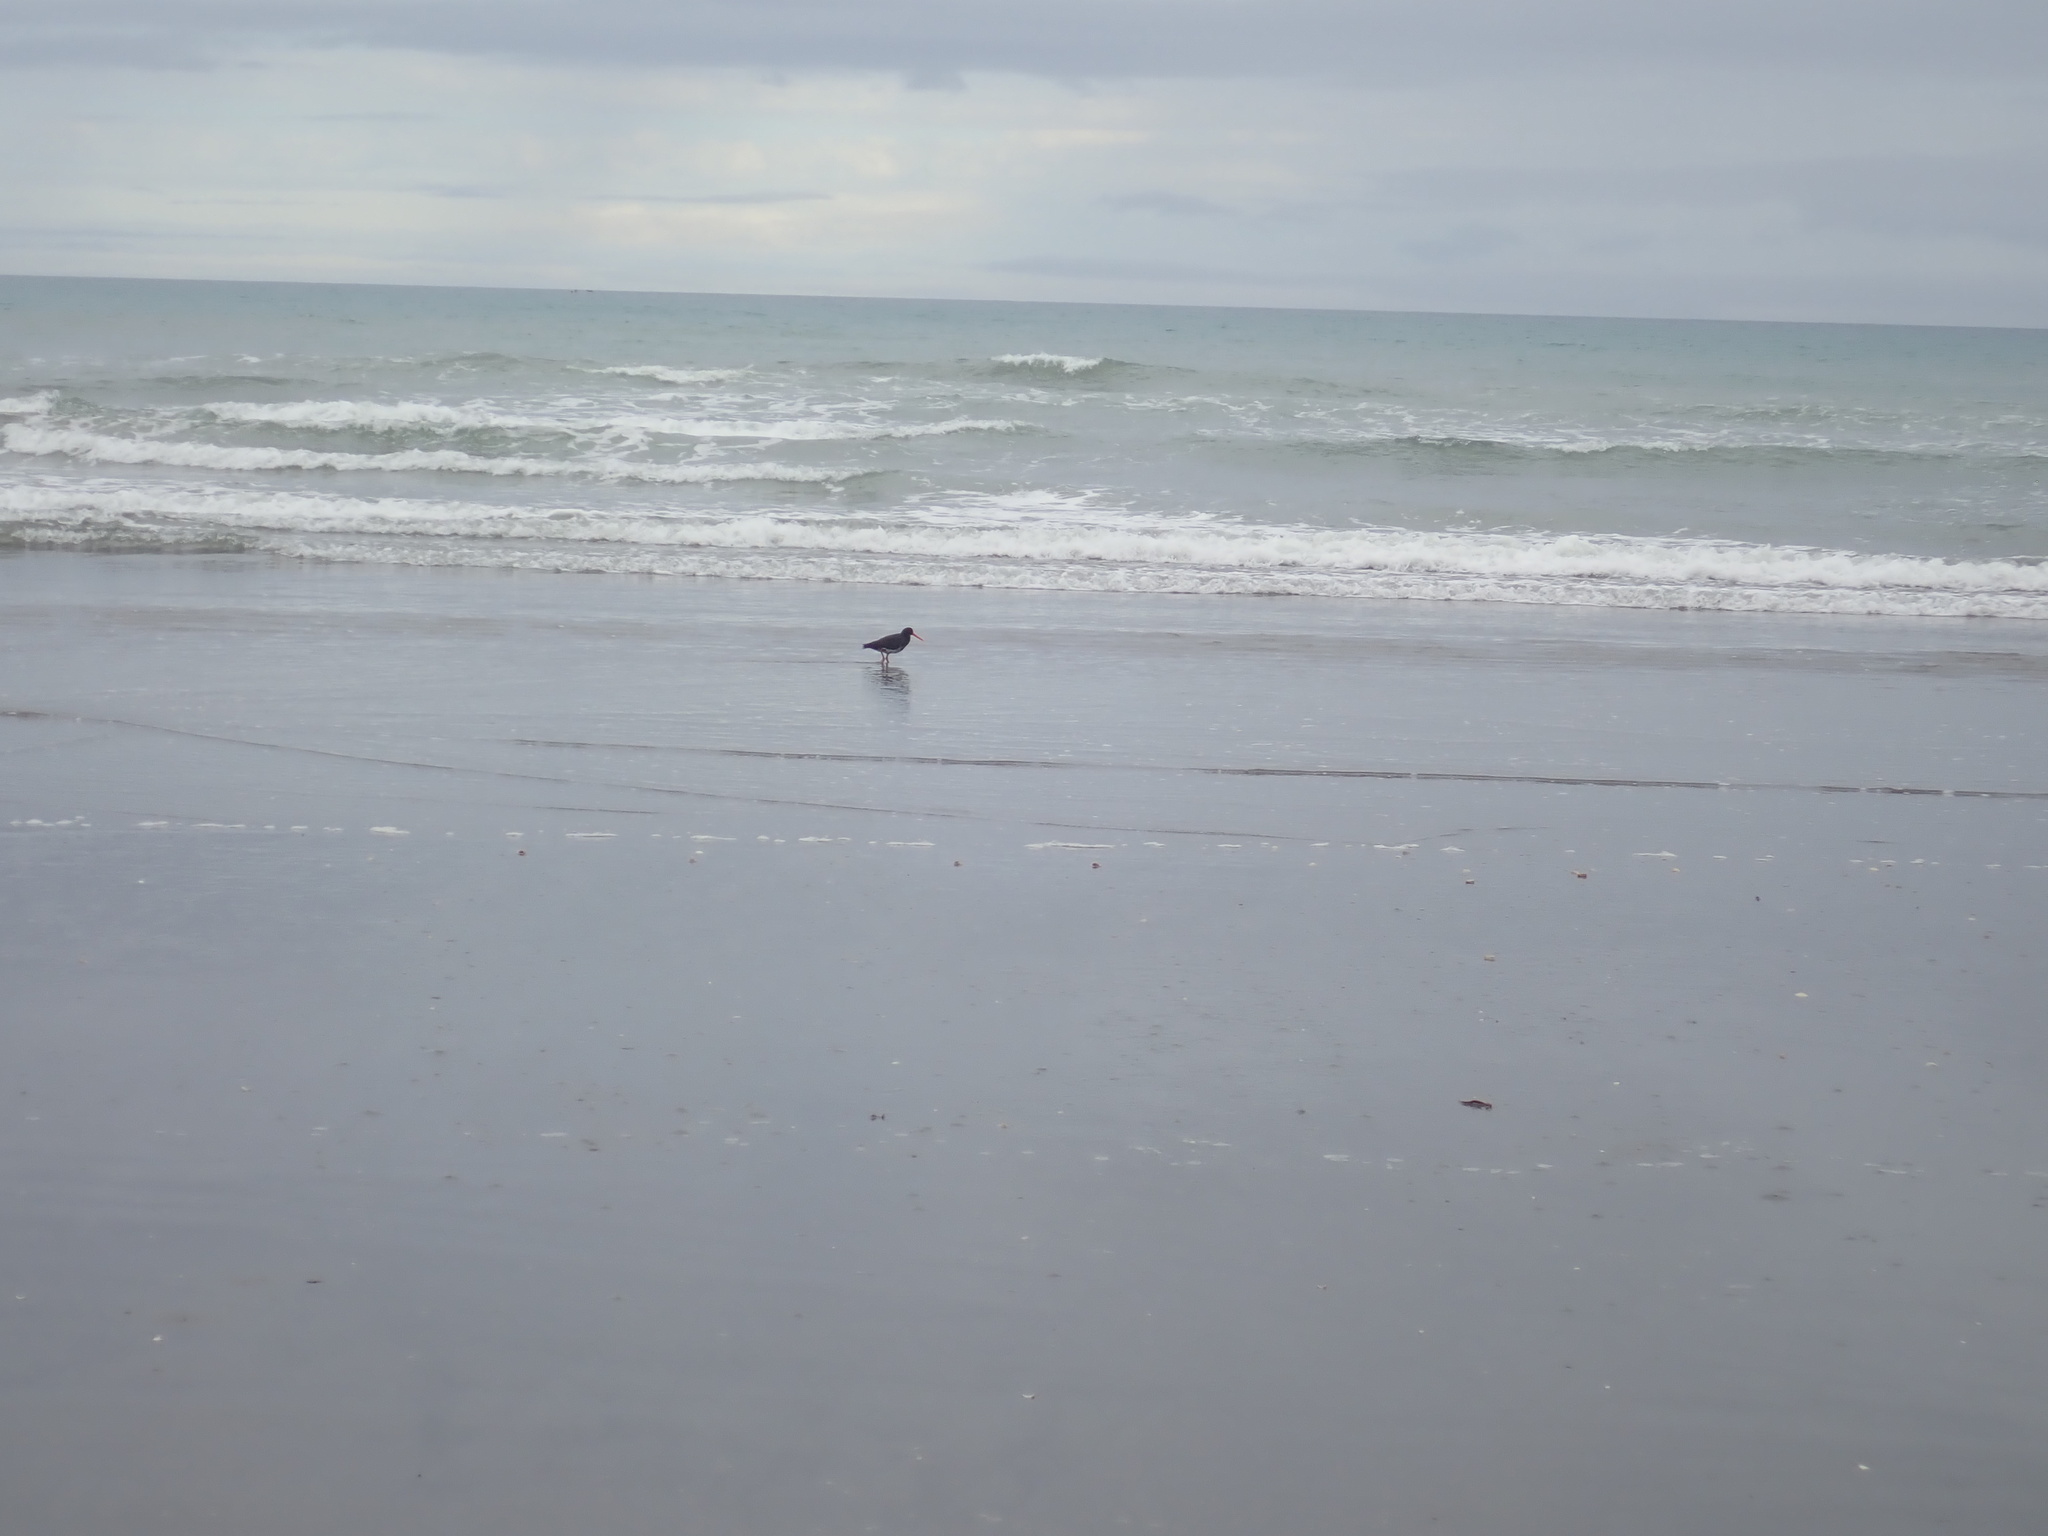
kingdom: Animalia
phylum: Chordata
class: Aves
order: Charadriiformes
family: Haematopodidae
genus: Haematopus
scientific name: Haematopus unicolor
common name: Variable oystercatcher
